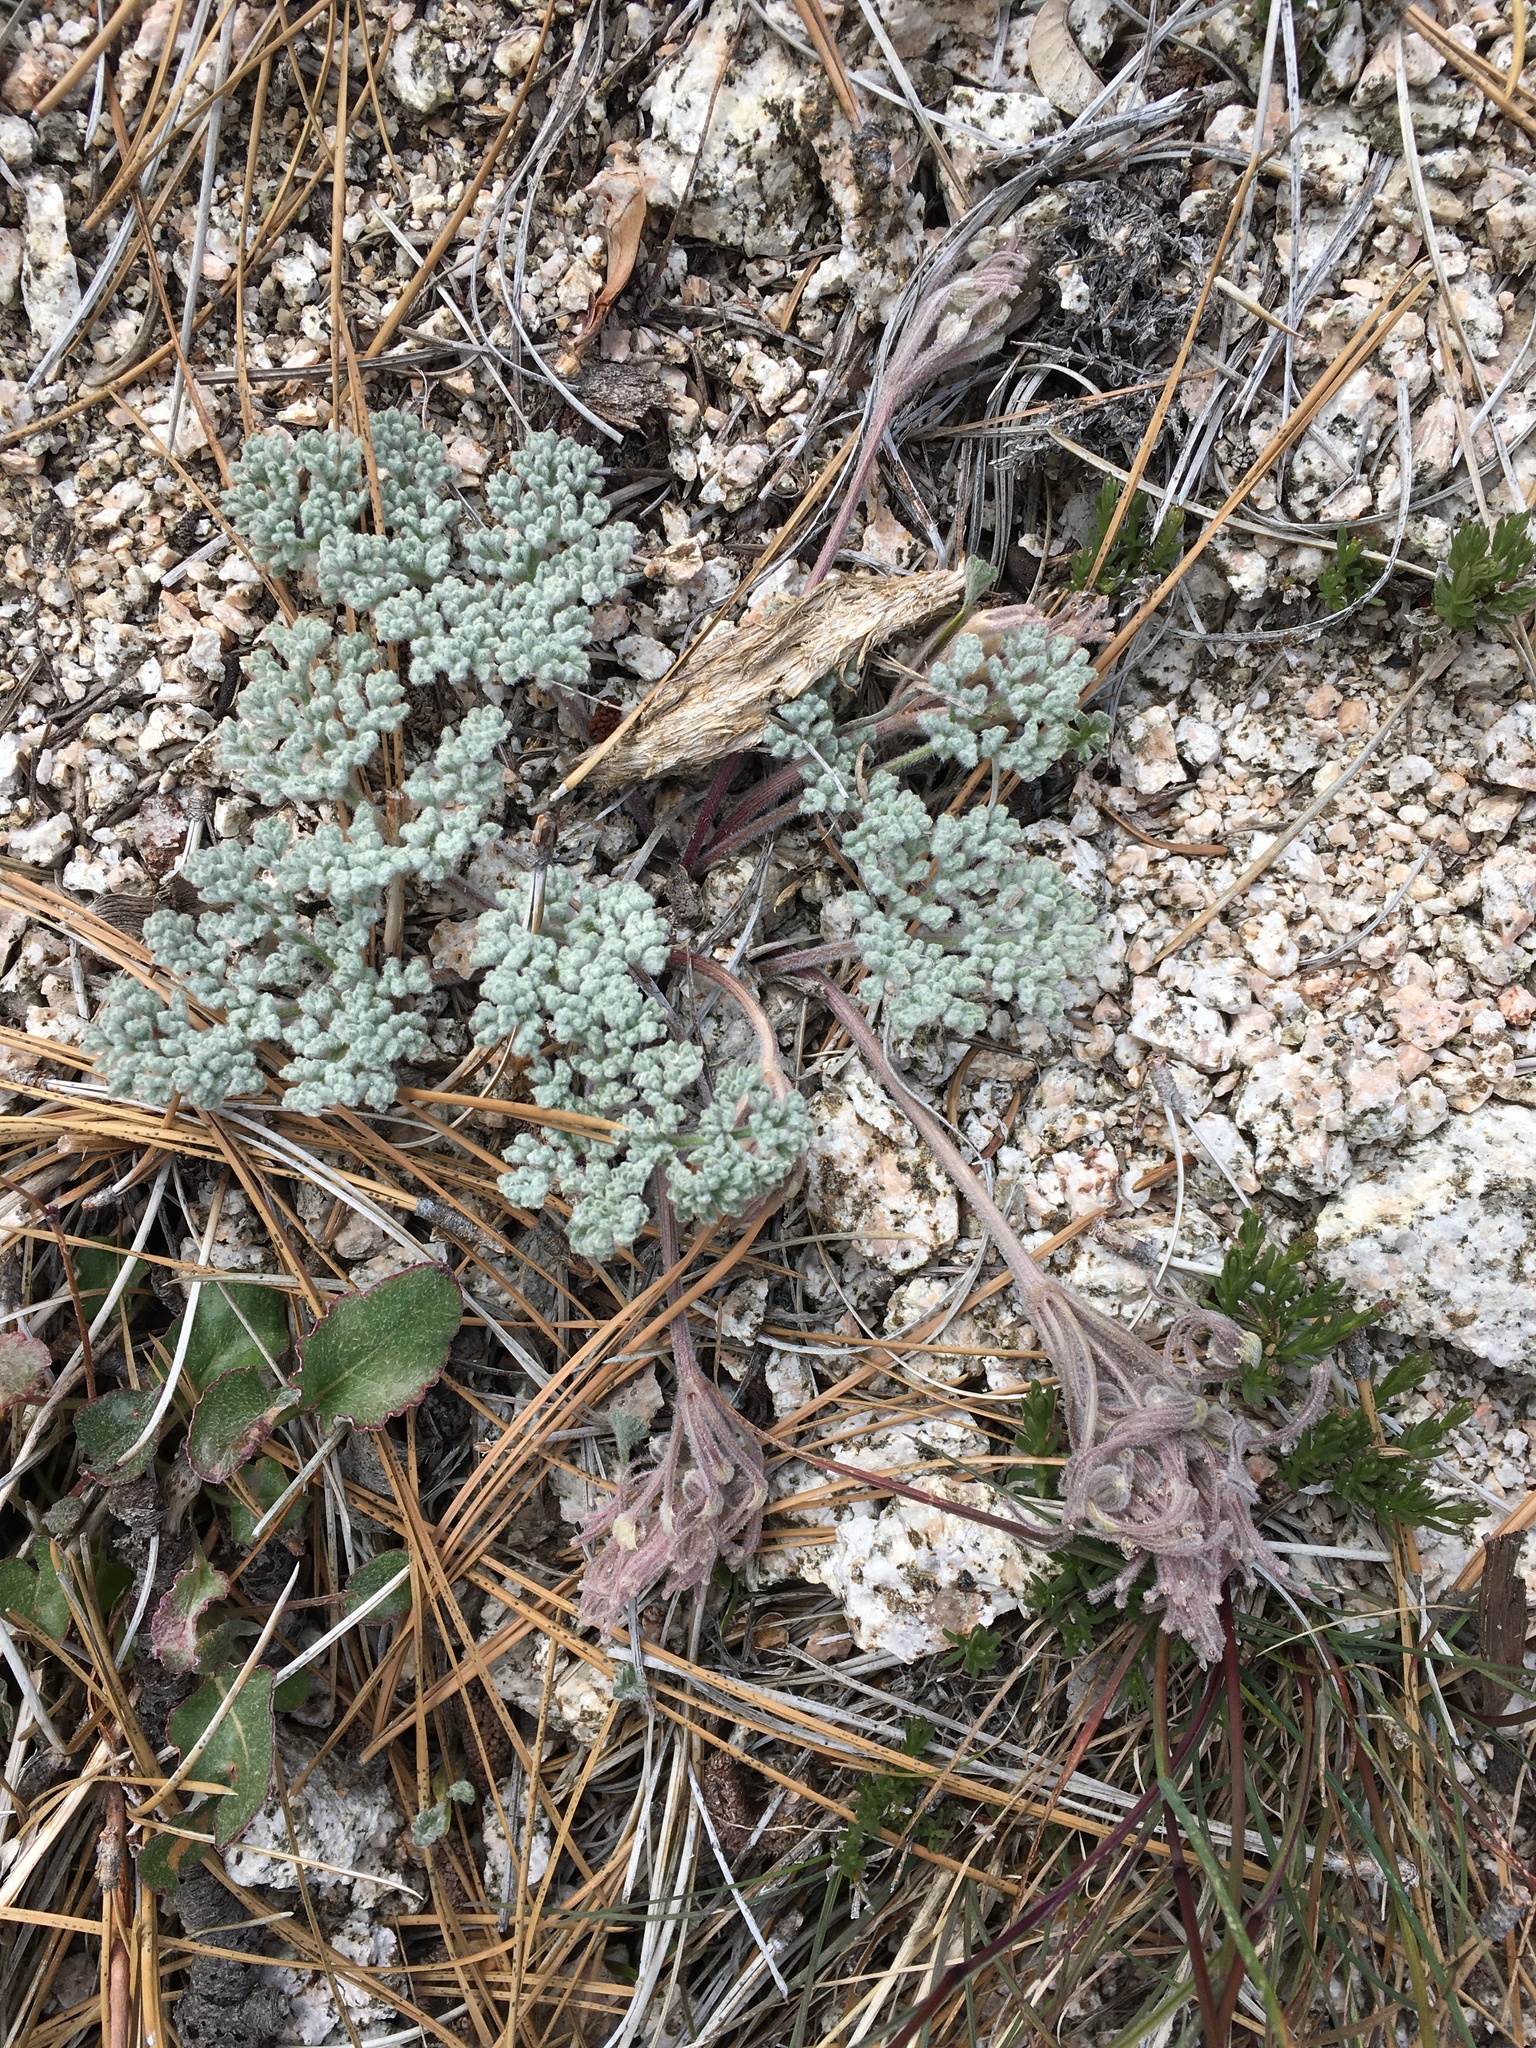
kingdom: Plantae
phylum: Tracheophyta
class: Magnoliopsida
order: Apiales
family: Apiaceae
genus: Oreonana
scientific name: Oreonana vestita
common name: Woolly mountain-parsley
